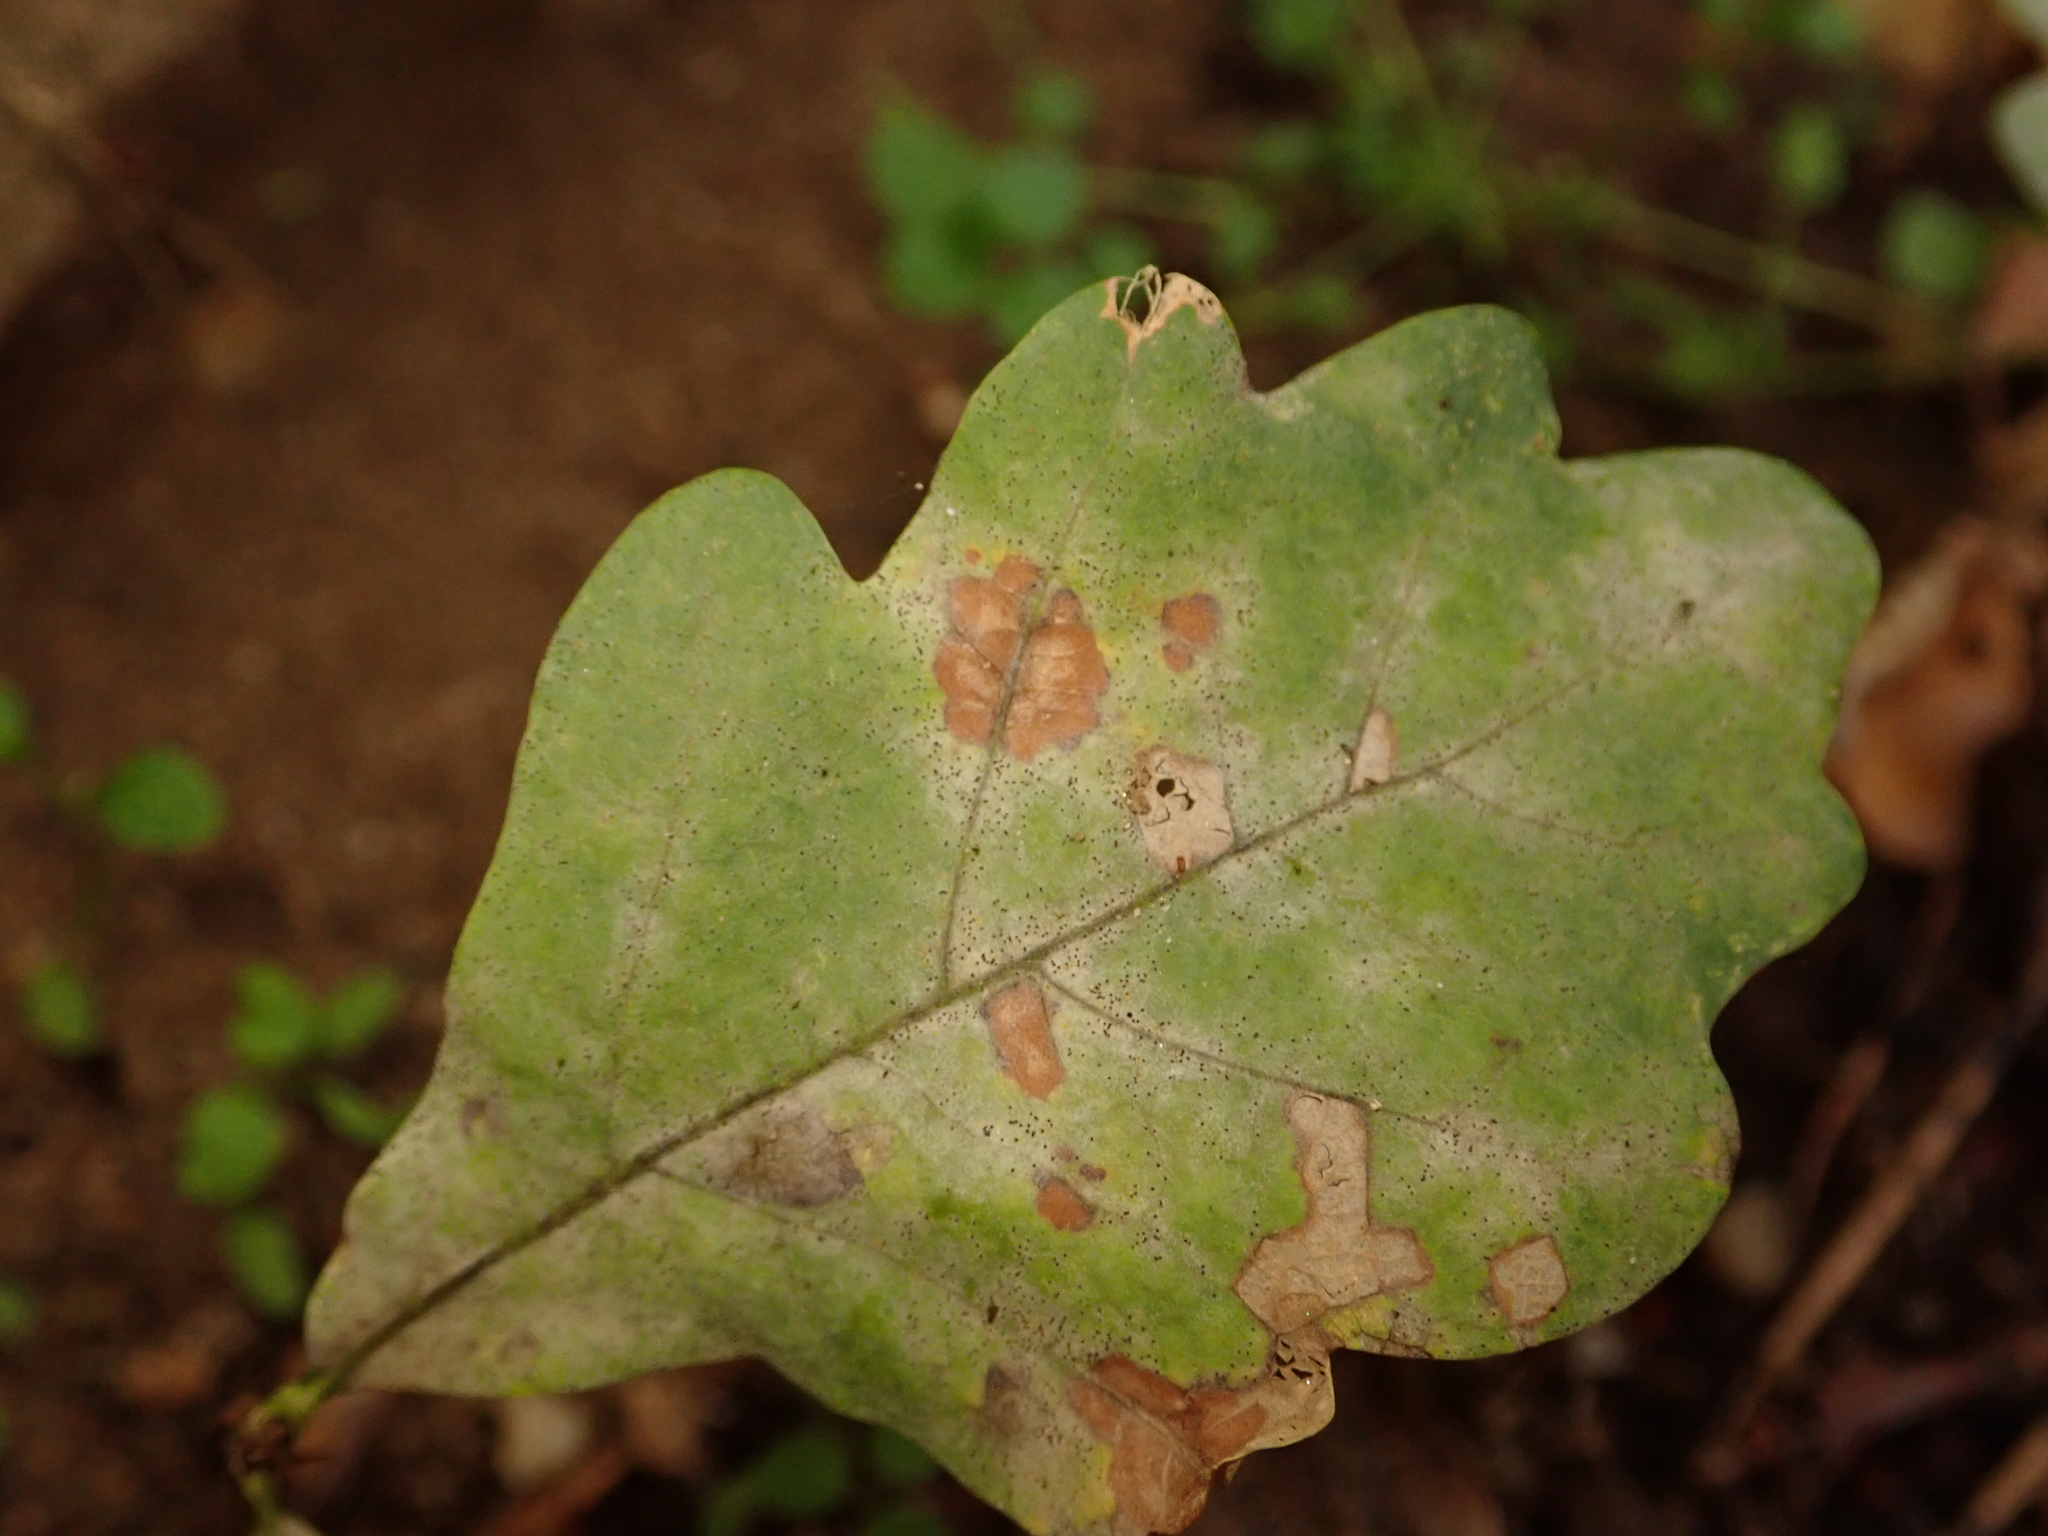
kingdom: Fungi
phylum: Ascomycota
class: Leotiomycetes
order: Helotiales
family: Erysiphaceae
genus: Erysiphe
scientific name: Erysiphe
